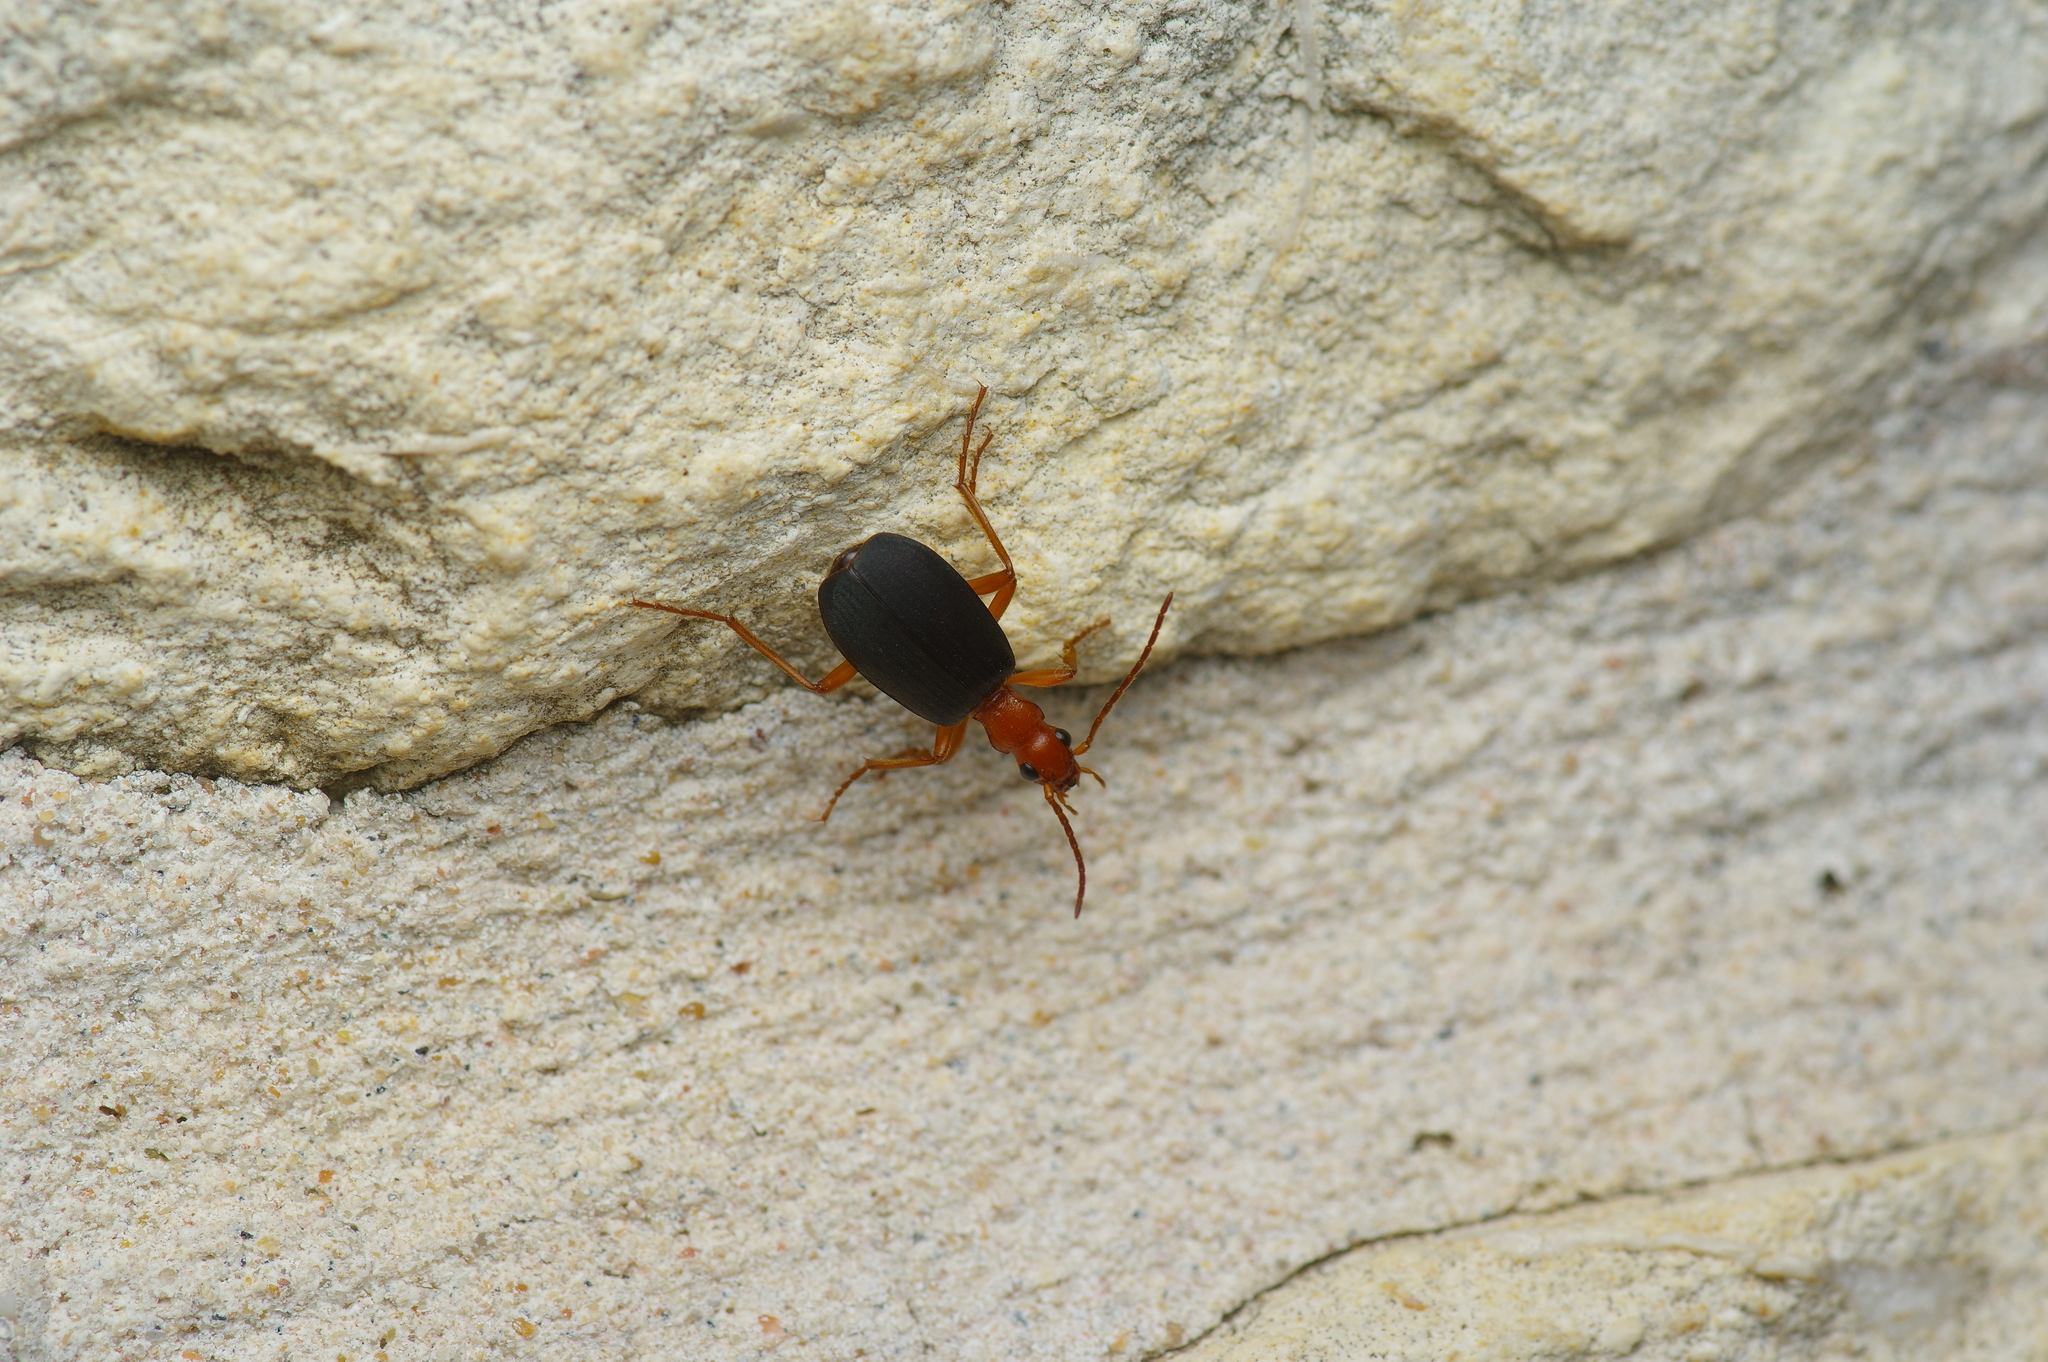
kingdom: Animalia
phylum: Arthropoda
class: Insecta
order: Coleoptera
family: Carabidae
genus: Brachinus
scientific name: Brachinus
